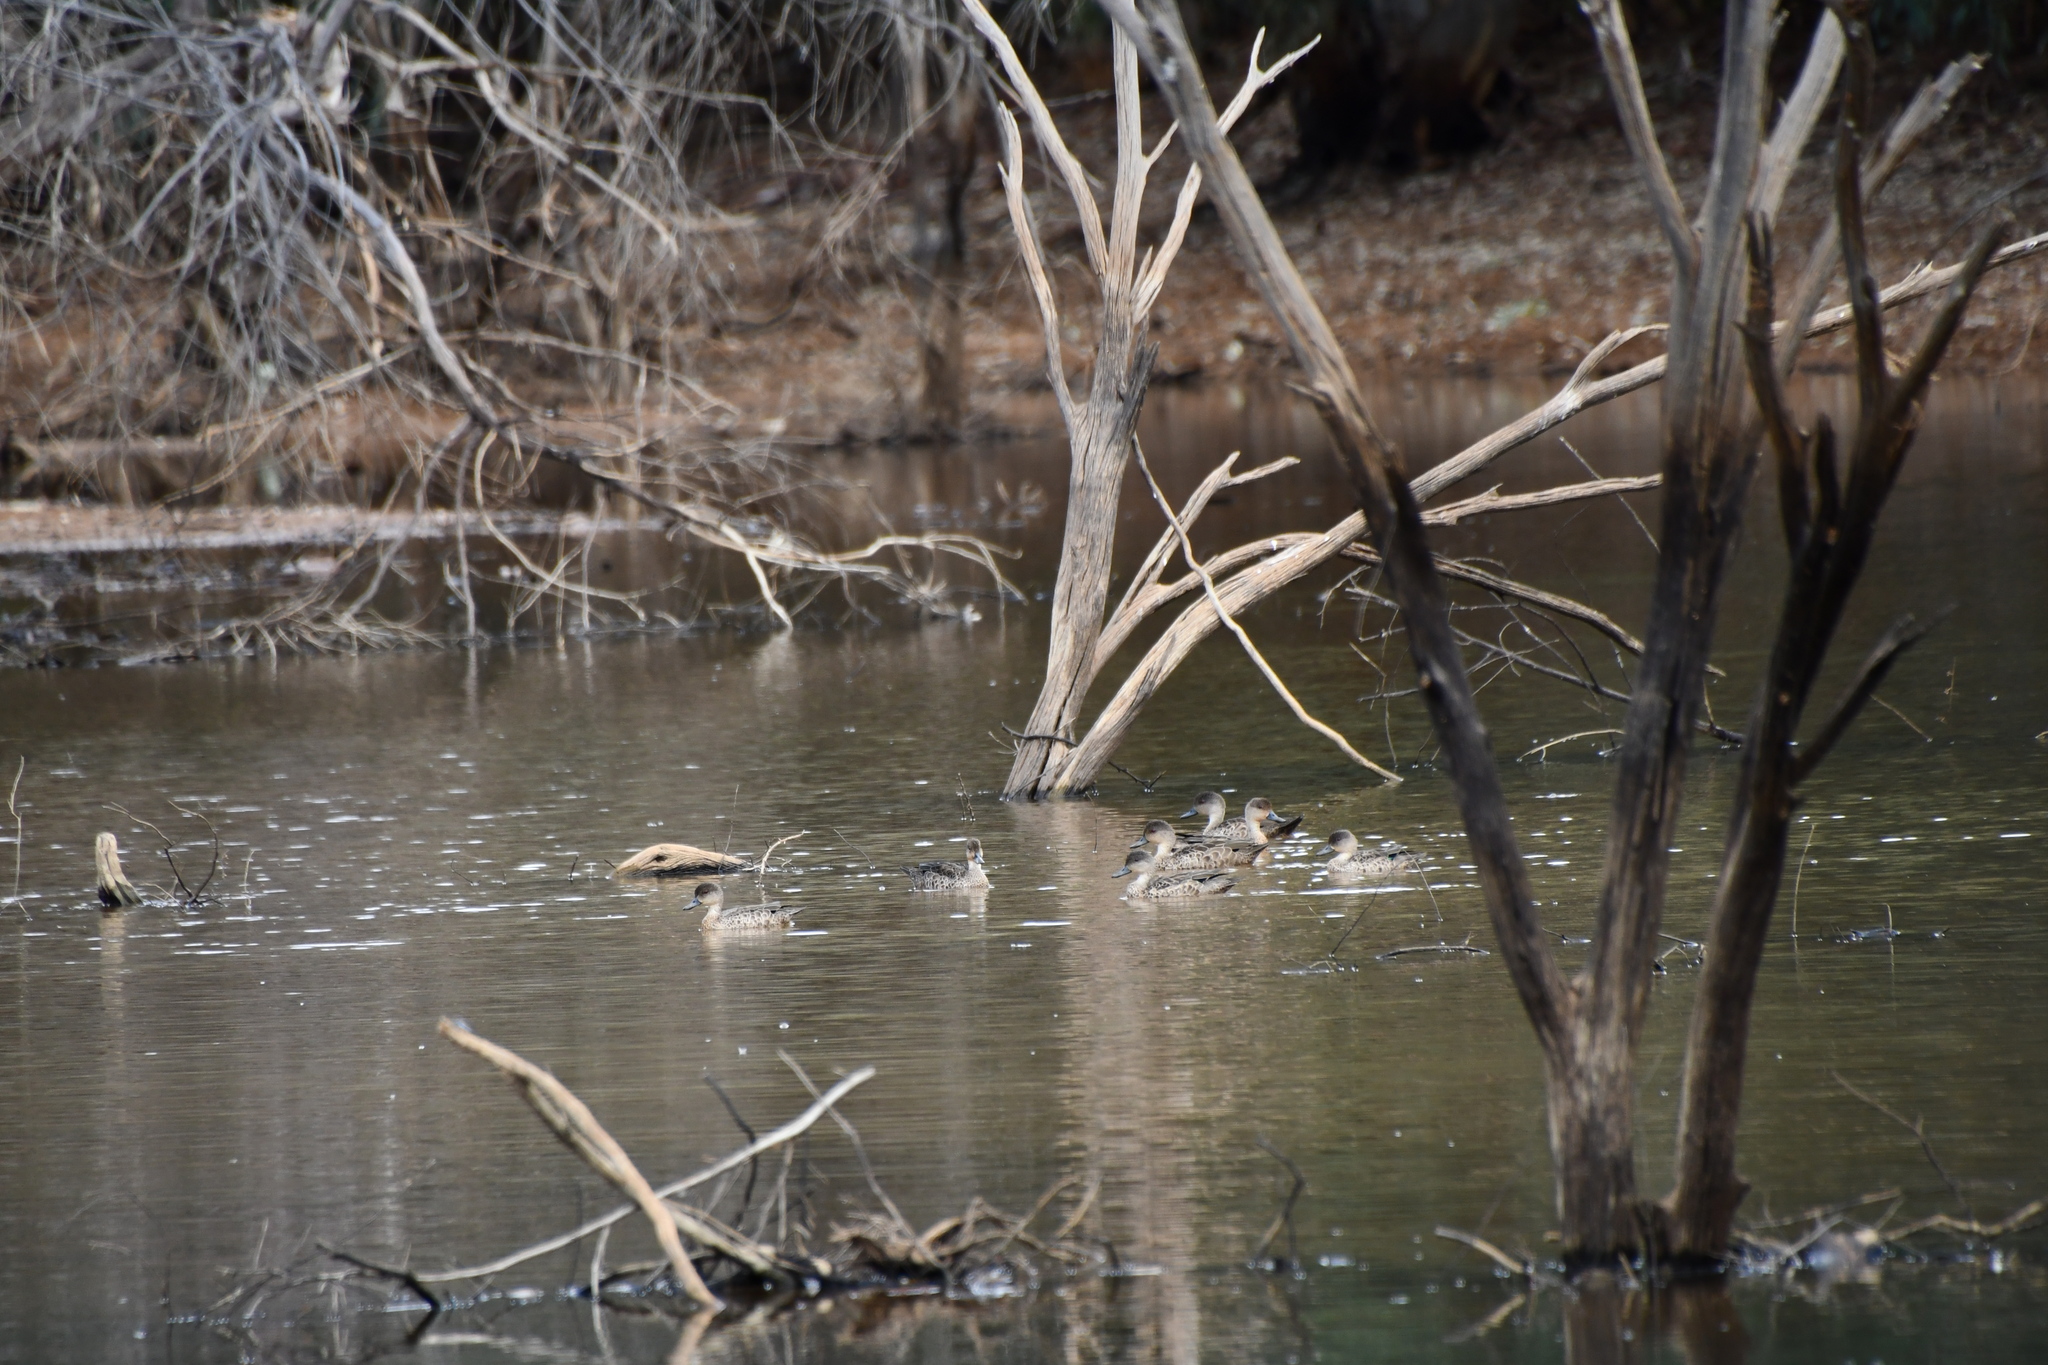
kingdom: Animalia
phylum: Chordata
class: Aves
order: Anseriformes
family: Anatidae
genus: Anas
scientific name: Anas gracilis
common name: Grey teal
